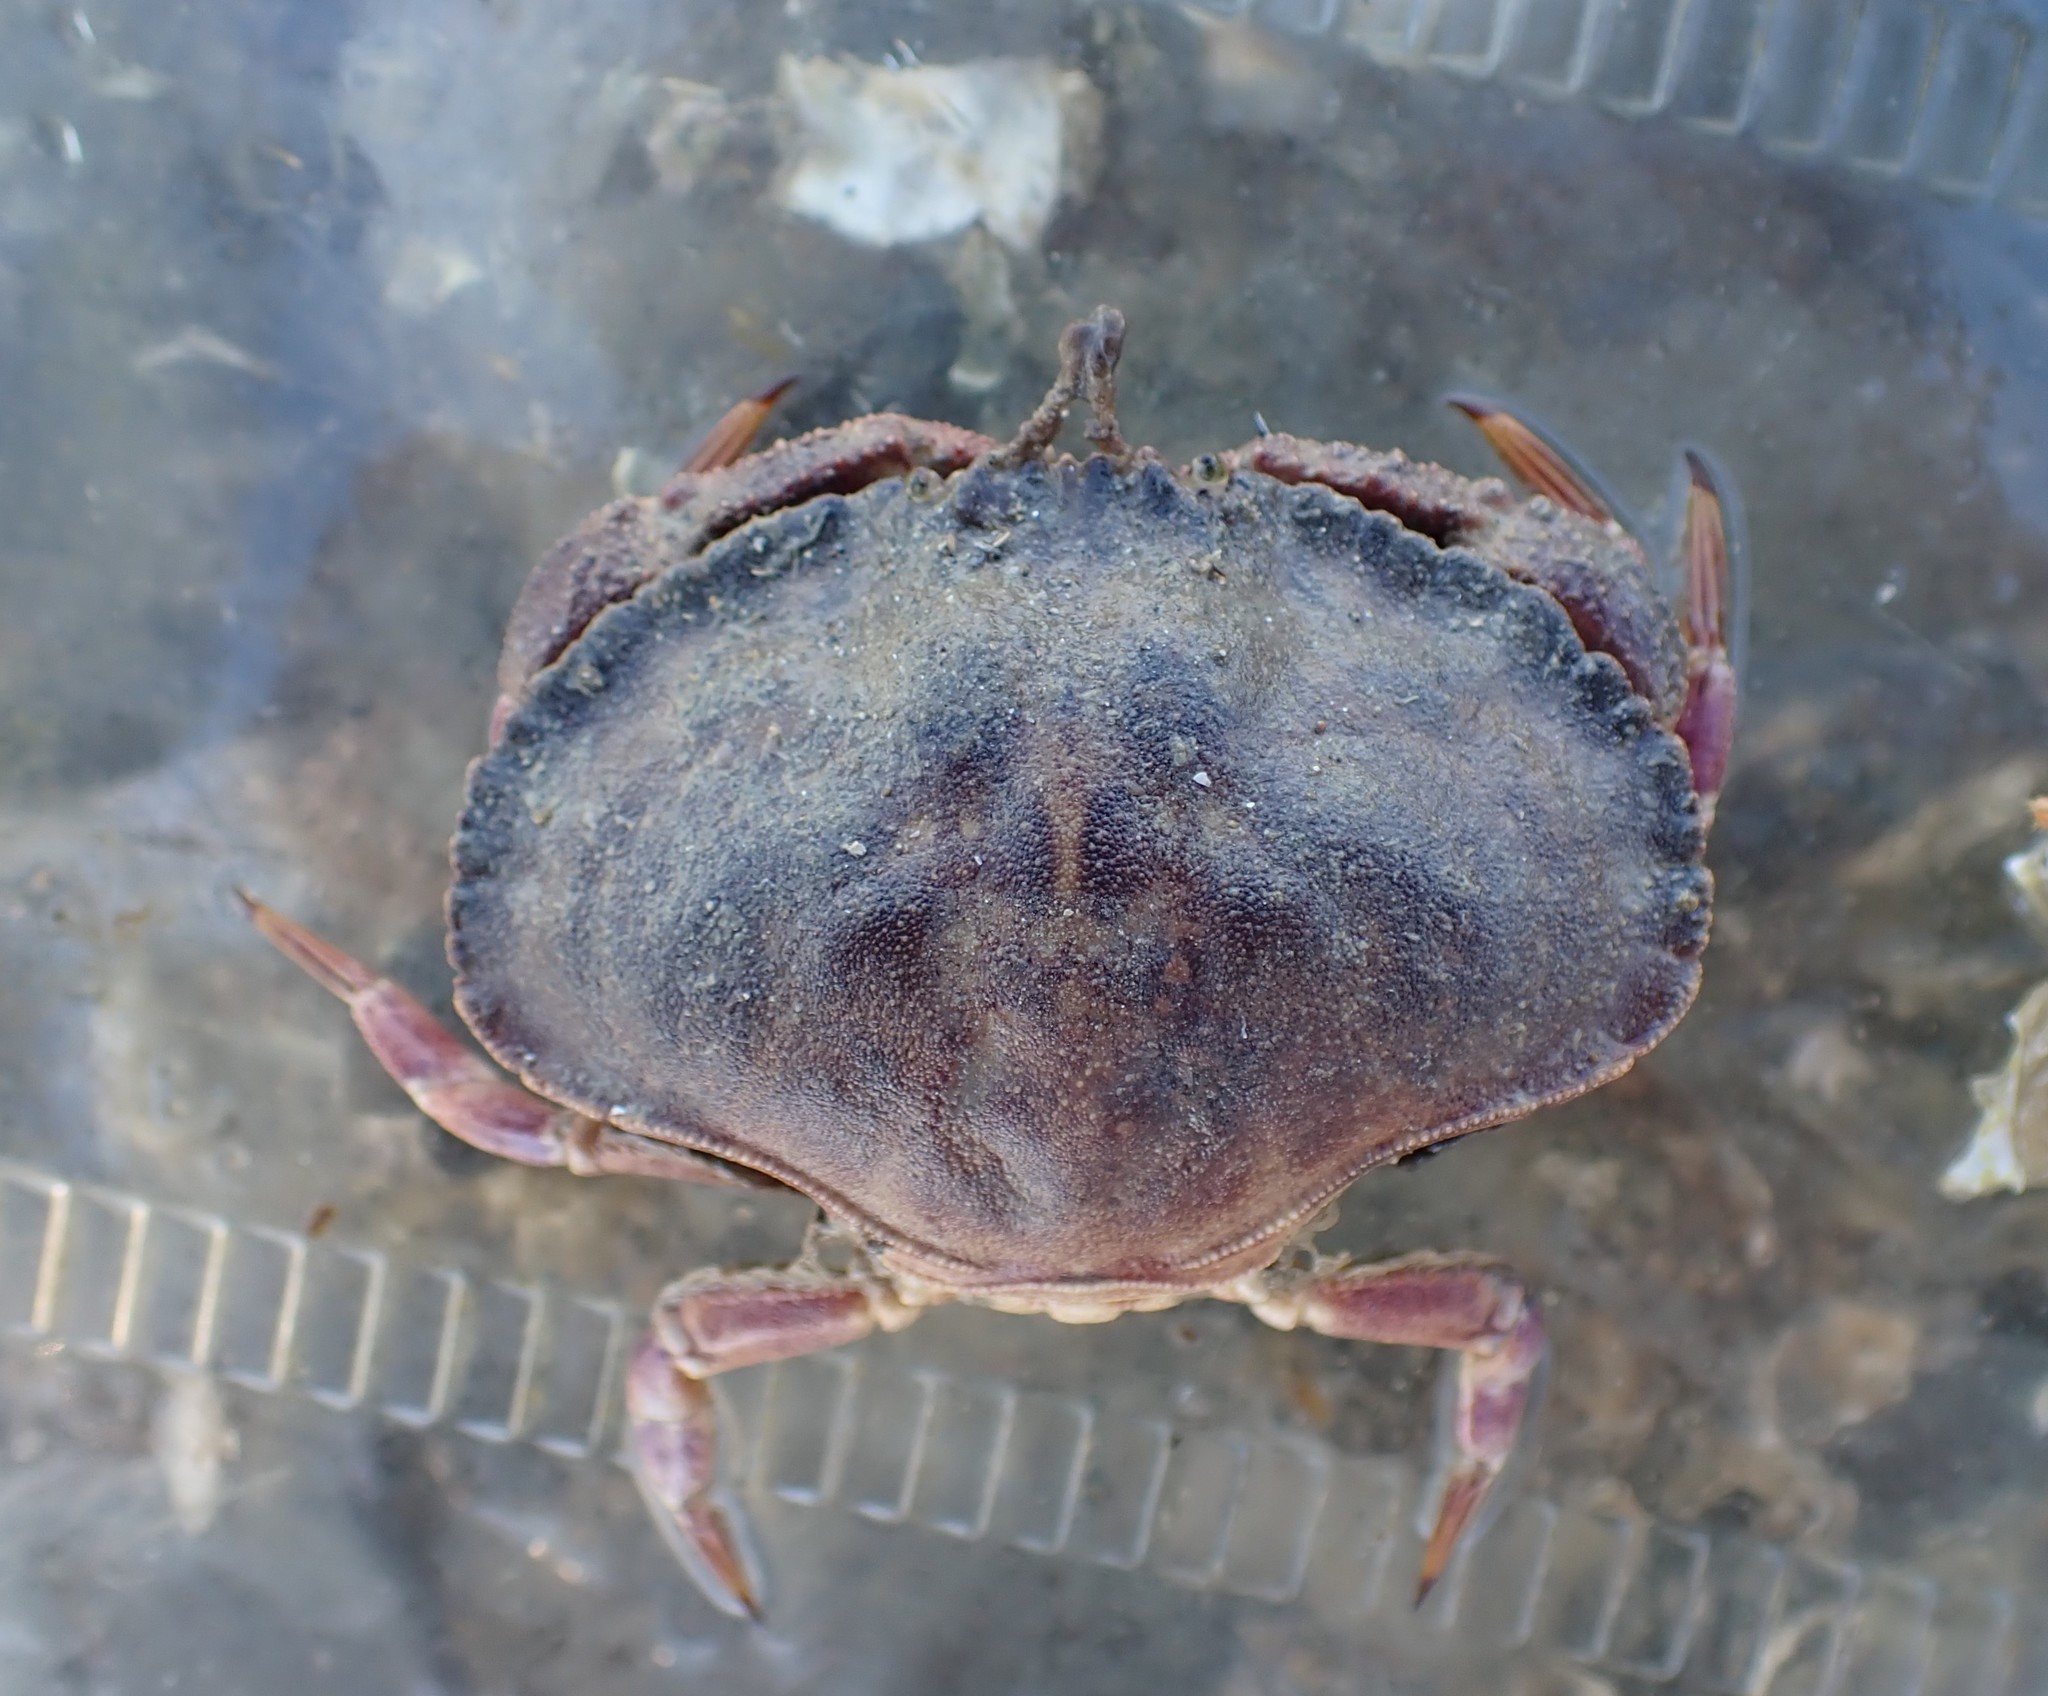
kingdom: Animalia
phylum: Arthropoda
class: Malacostraca
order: Decapoda
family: Cancridae
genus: Metacarcinus
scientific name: Metacarcinus novaezelandiae
